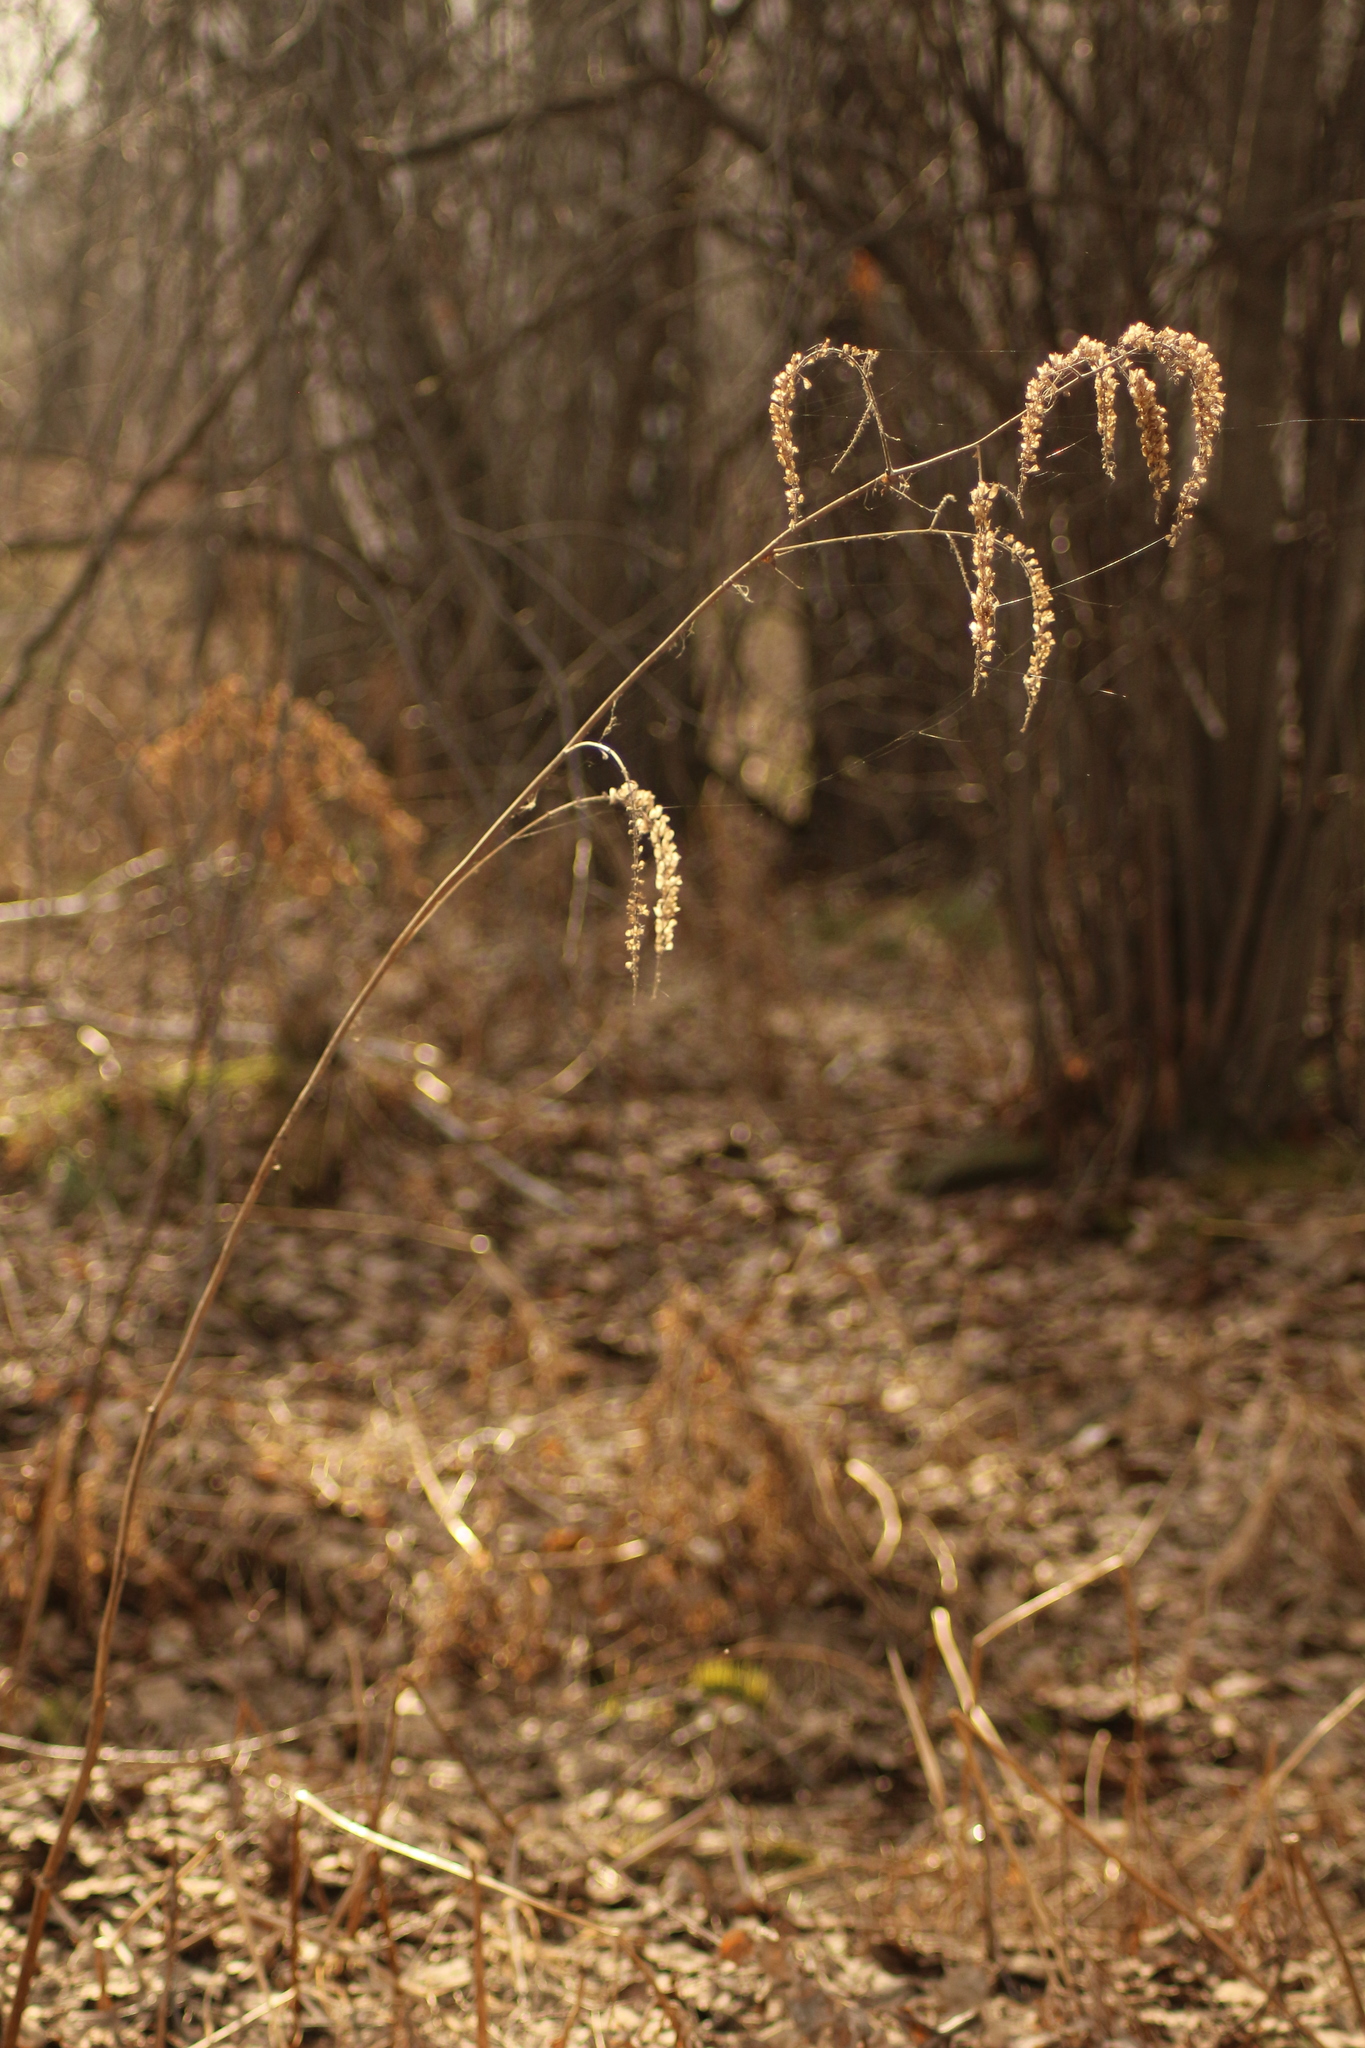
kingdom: Plantae
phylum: Tracheophyta
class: Magnoliopsida
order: Ranunculales
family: Ranunculaceae
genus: Actaea
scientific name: Actaea cimicifuga
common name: Chinese cimicifuga
